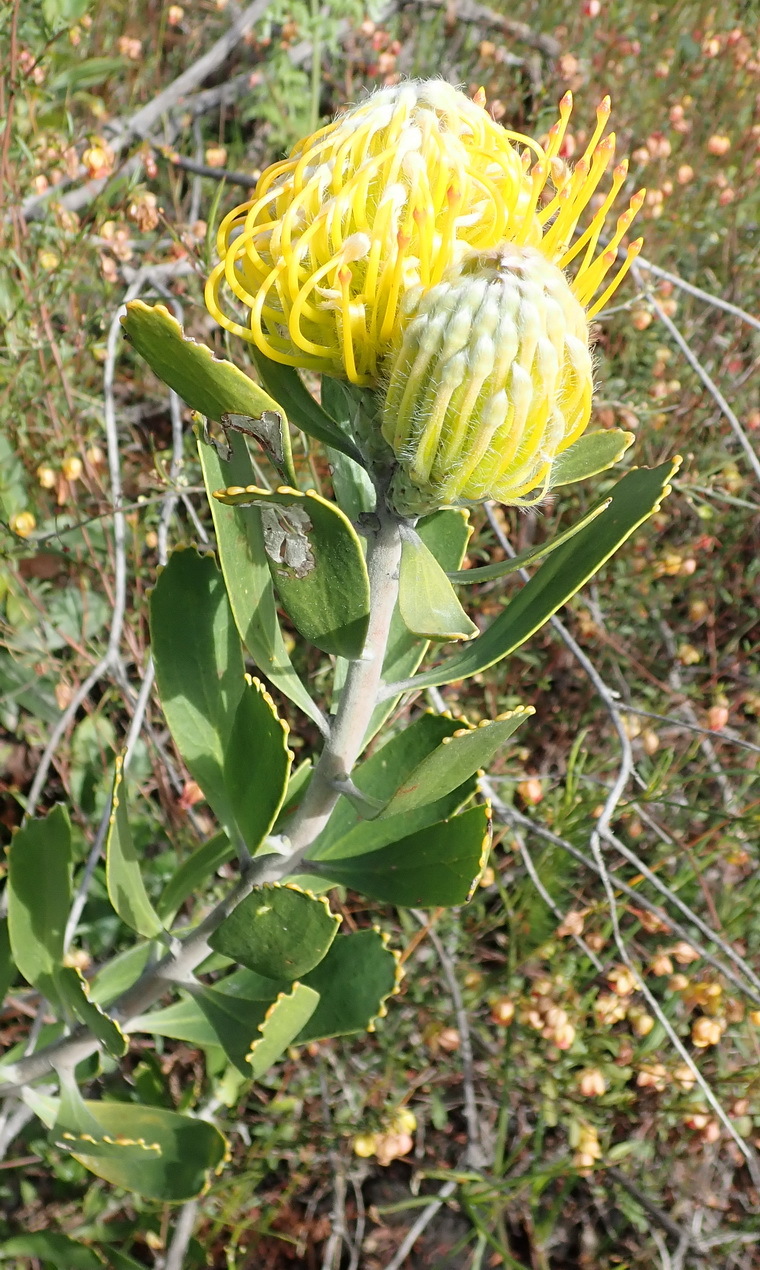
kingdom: Plantae
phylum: Tracheophyta
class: Magnoliopsida
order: Proteales
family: Proteaceae
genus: Leucospermum
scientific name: Leucospermum cuneiforme
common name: Common pincushion
